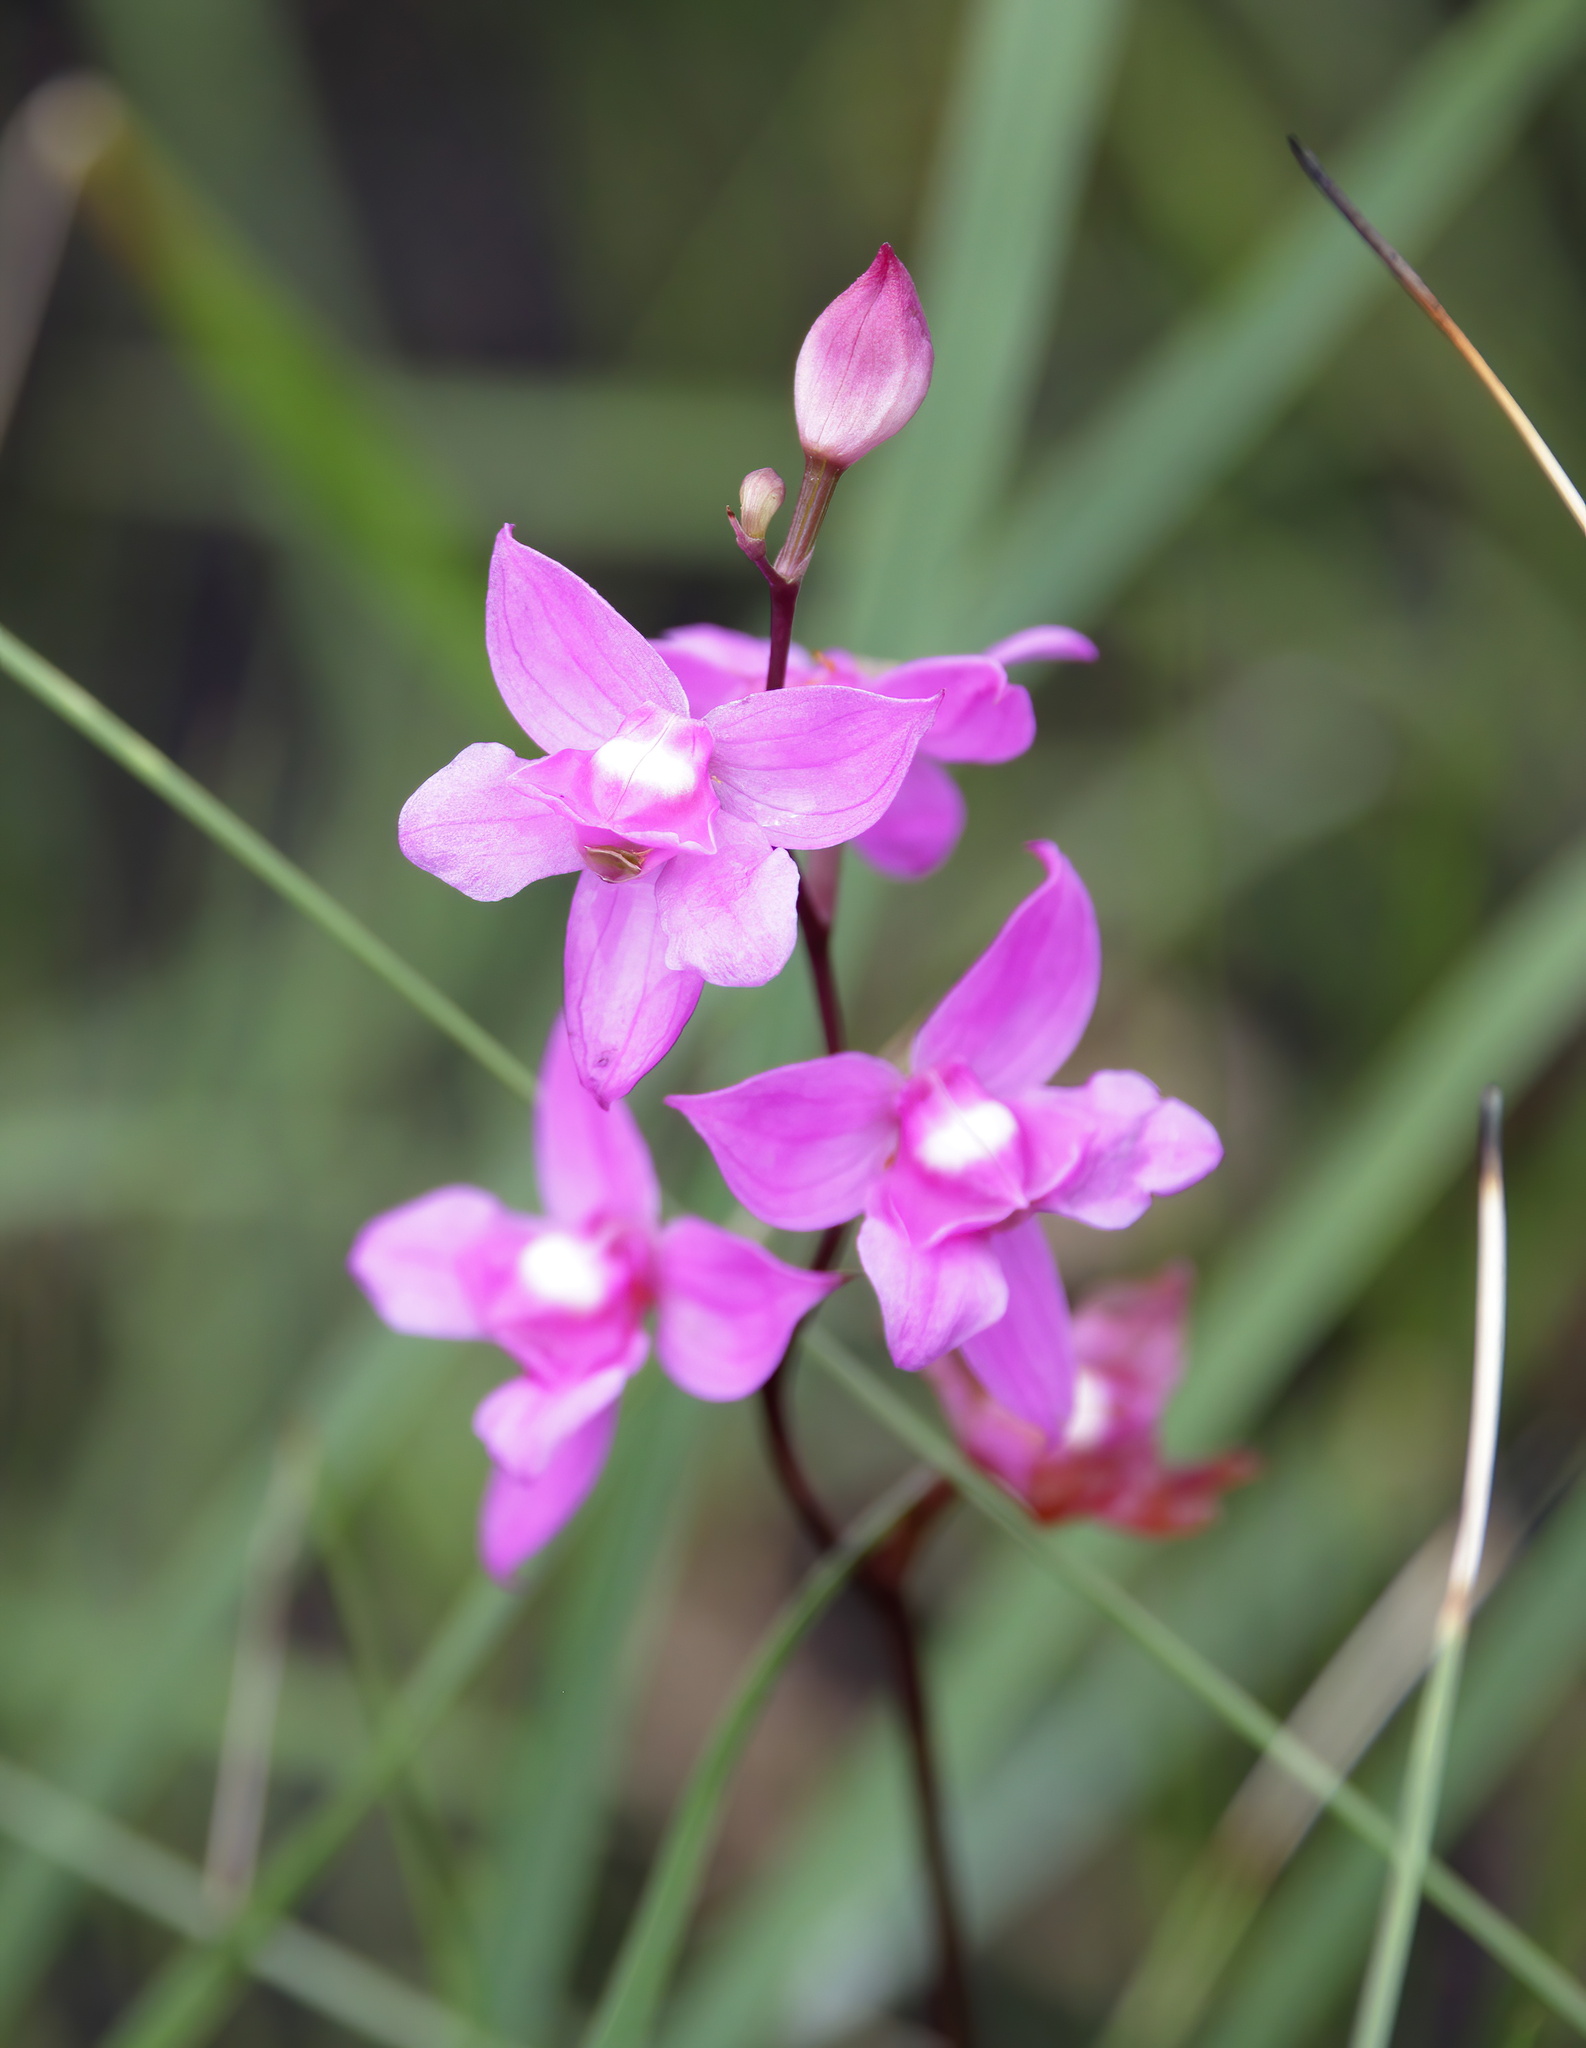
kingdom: Plantae
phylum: Tracheophyta
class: Liliopsida
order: Asparagales
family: Orchidaceae
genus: Calopogon
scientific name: Calopogon multiflorus
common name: Many-flowered grass-pink orchid
